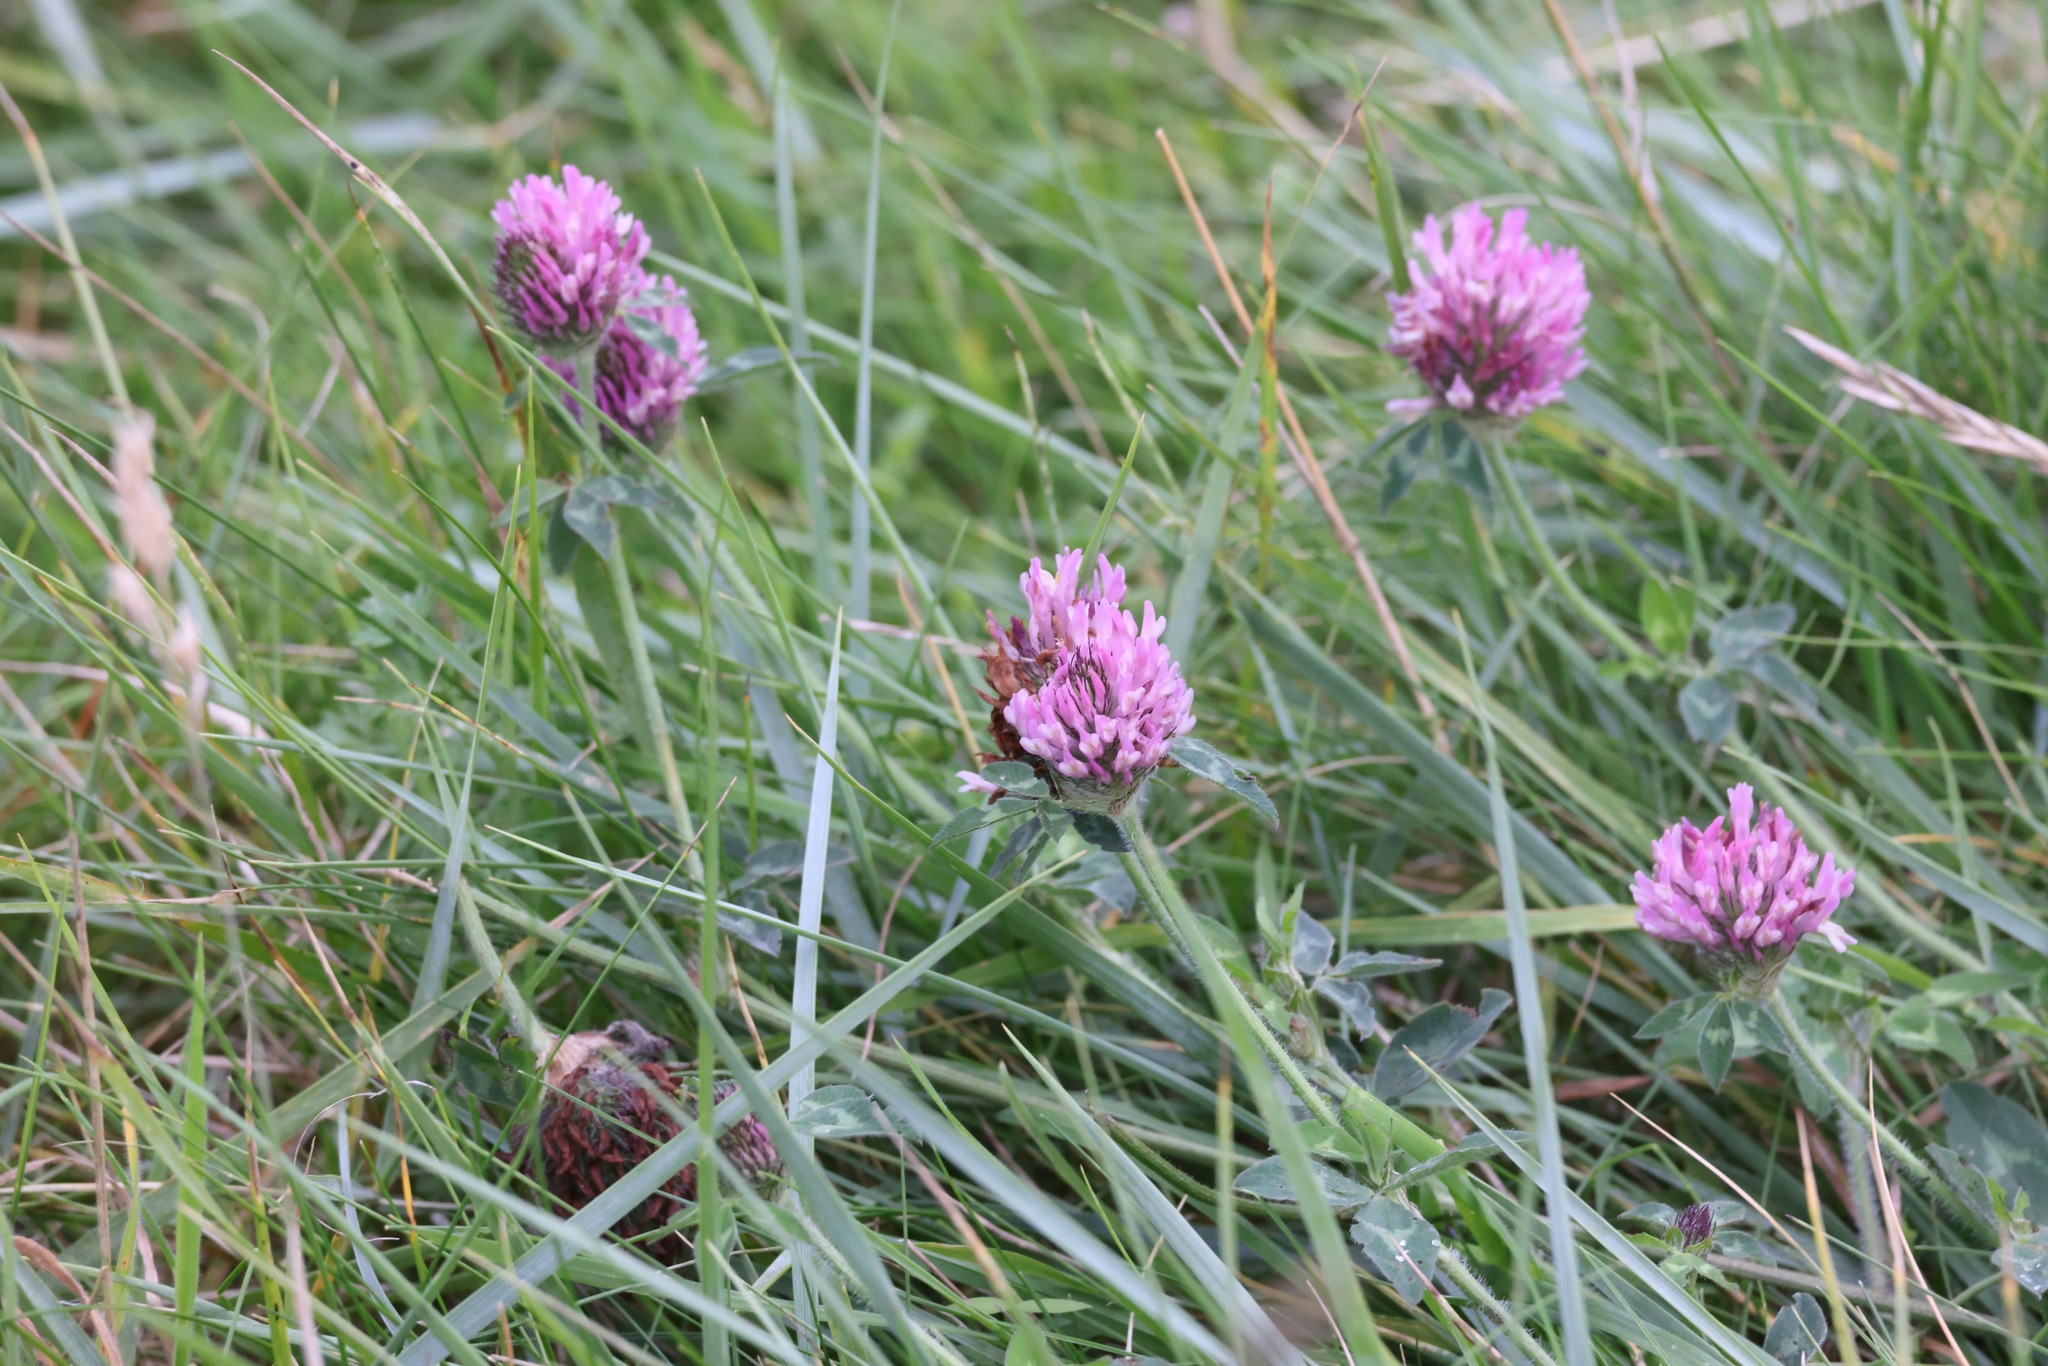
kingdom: Plantae
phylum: Tracheophyta
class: Magnoliopsida
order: Fabales
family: Fabaceae
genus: Trifolium
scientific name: Trifolium pratense
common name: Red clover
